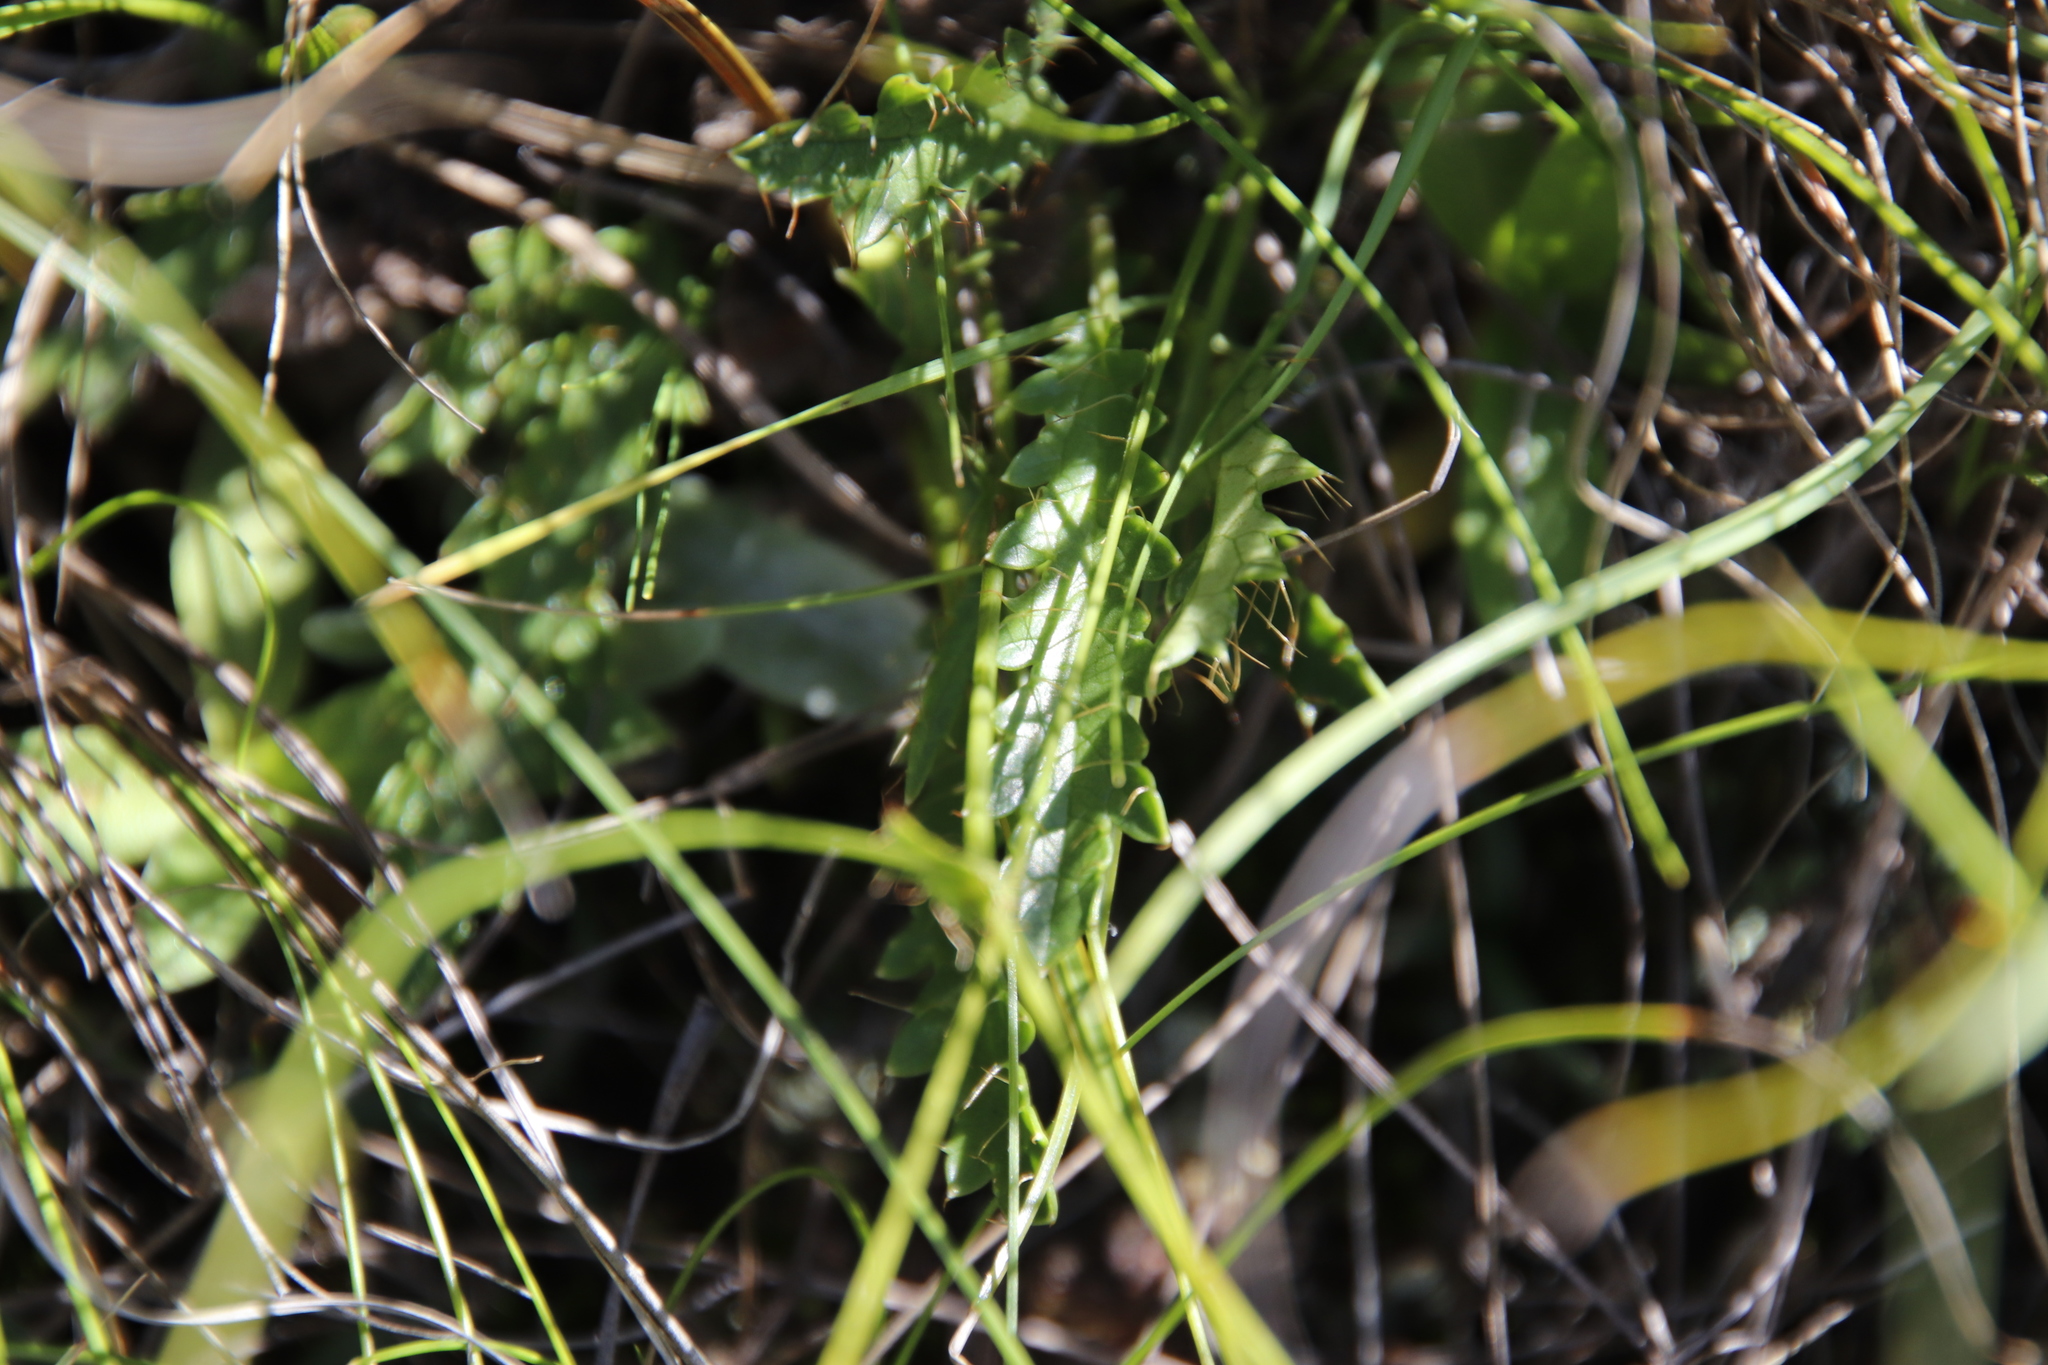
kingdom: Plantae
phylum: Tracheophyta
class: Magnoliopsida
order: Apiales
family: Apiaceae
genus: Alepidea
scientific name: Alepidea duplidens
